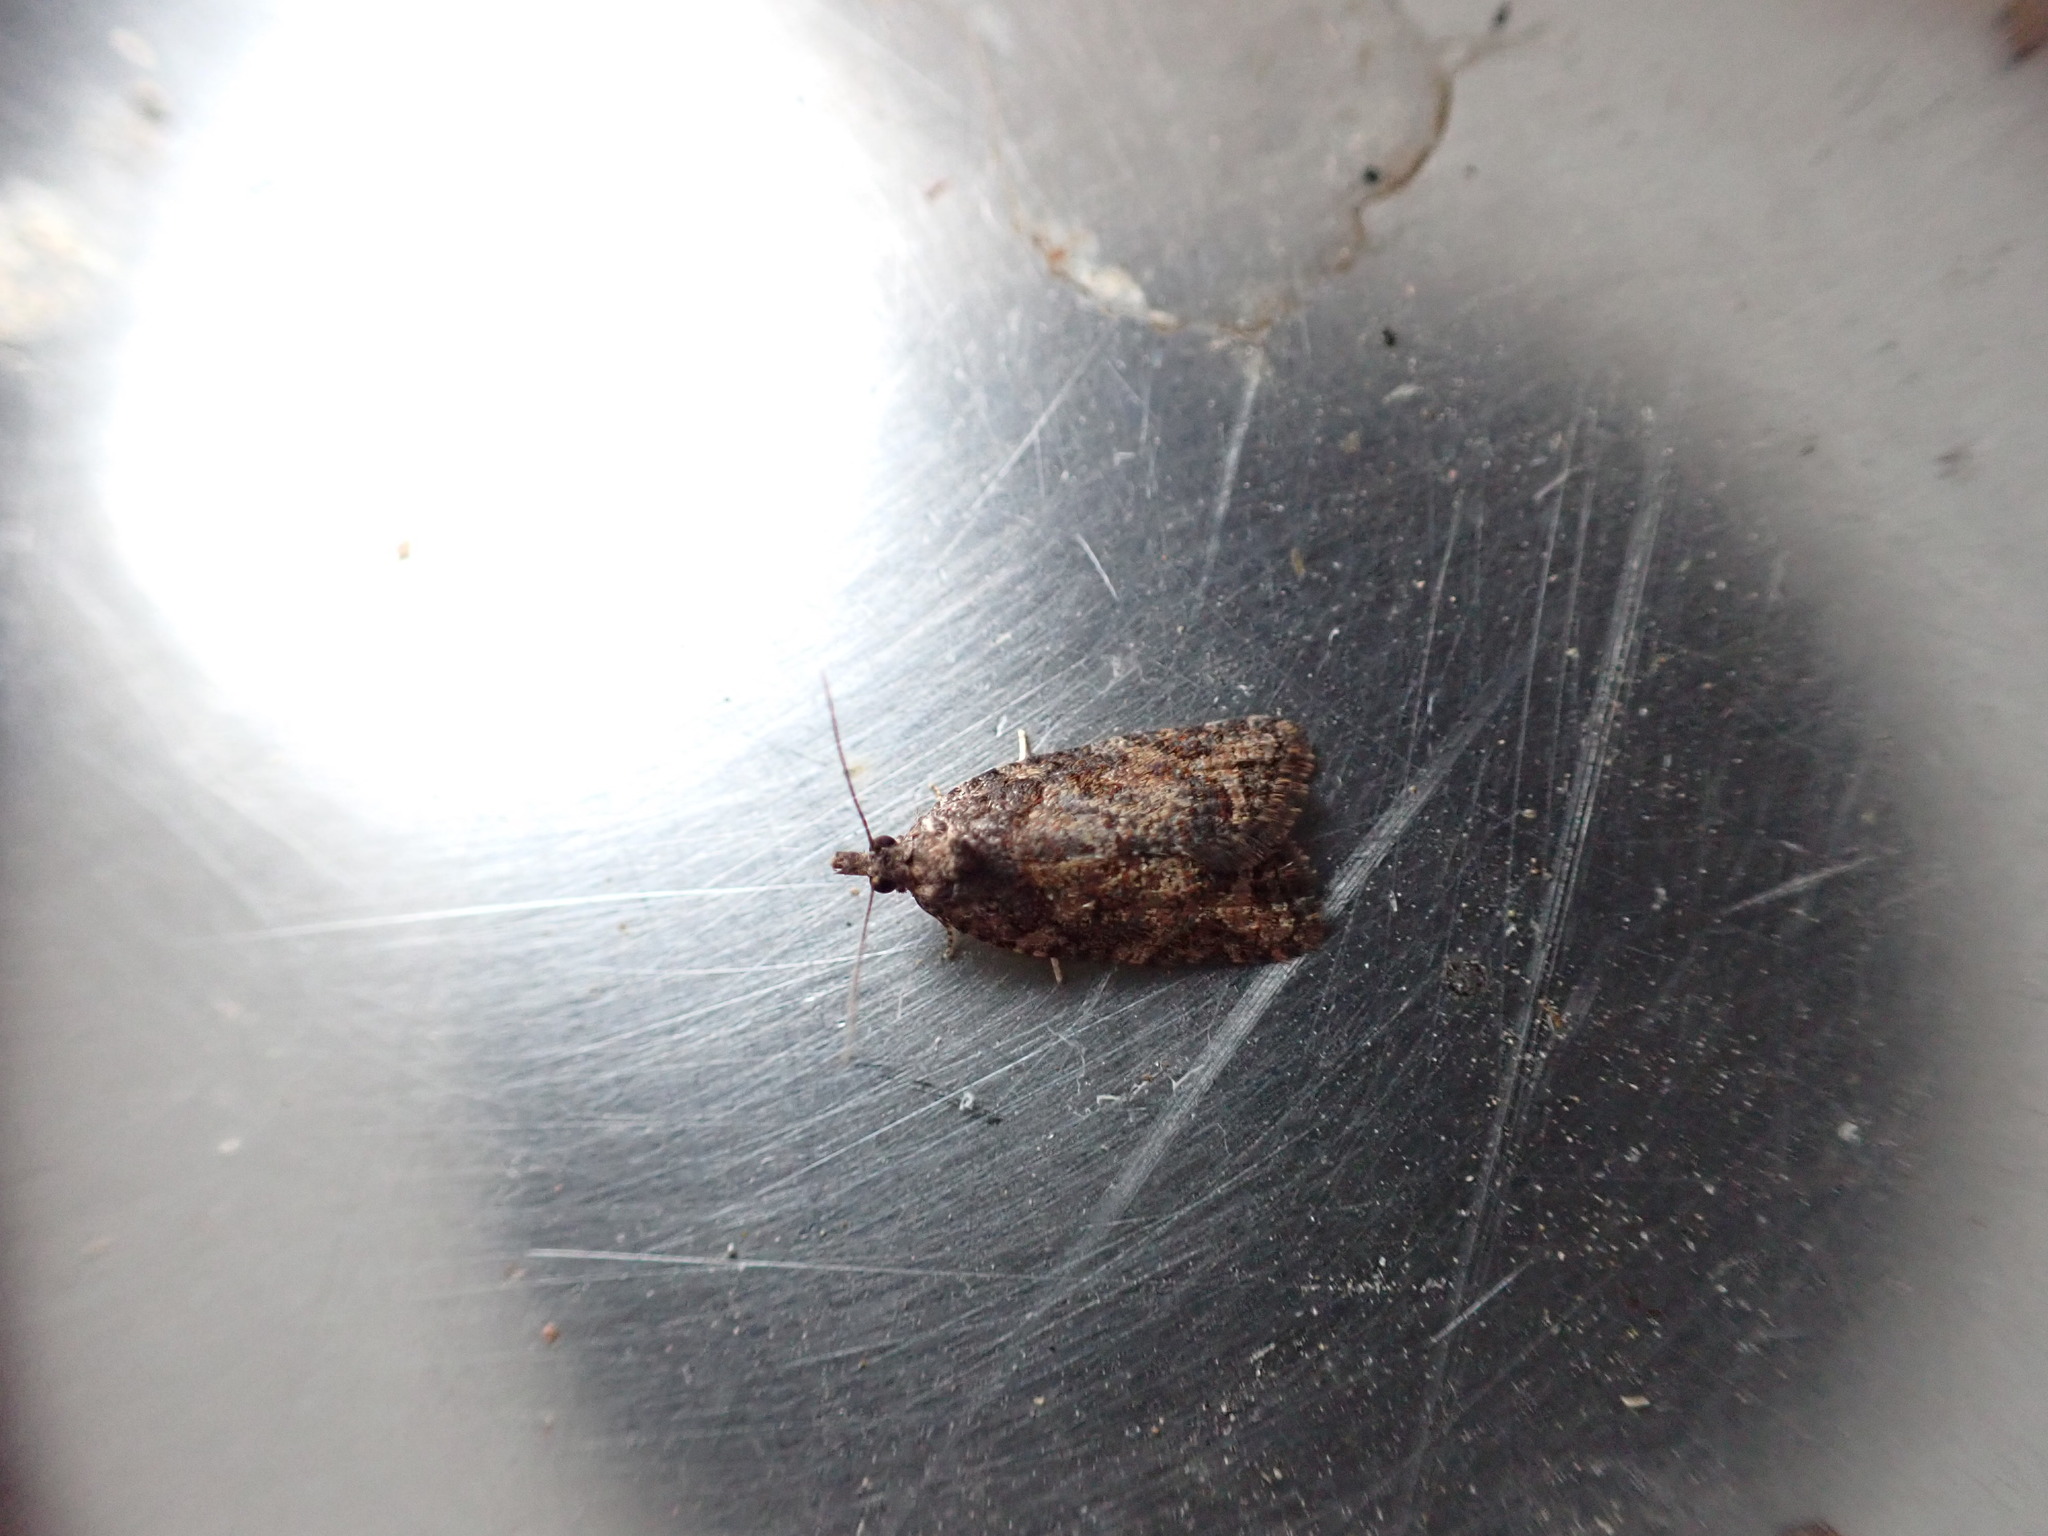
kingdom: Animalia
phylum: Arthropoda
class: Insecta
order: Lepidoptera
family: Tortricidae
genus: Capua
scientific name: Capua intractana
